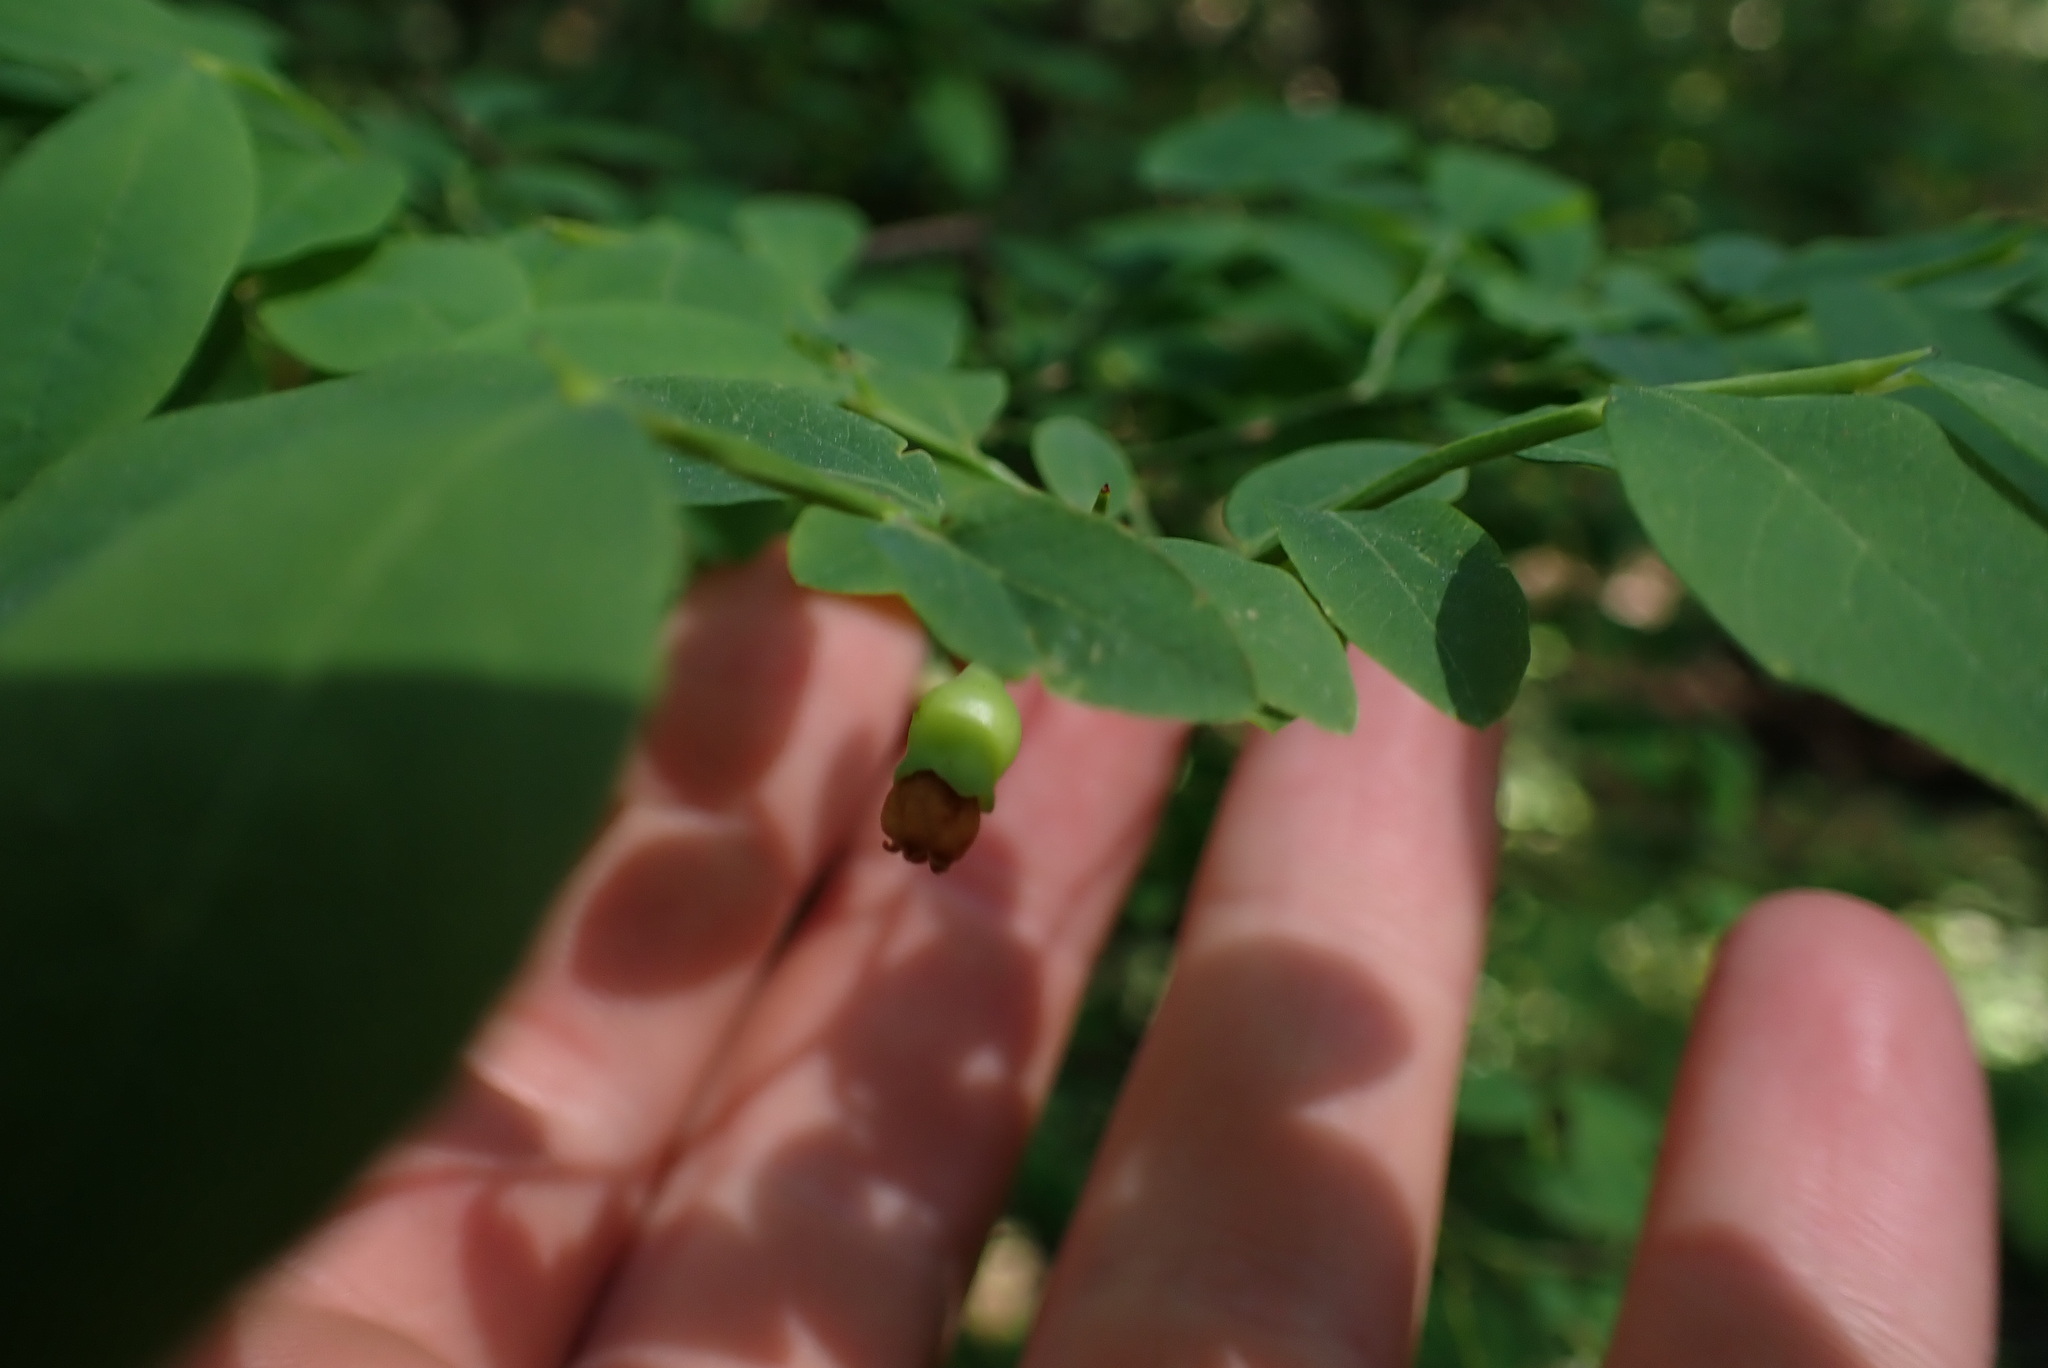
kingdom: Plantae
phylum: Tracheophyta
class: Magnoliopsida
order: Ericales
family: Ericaceae
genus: Vaccinium
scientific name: Vaccinium parvifolium
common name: Red-huckleberry
